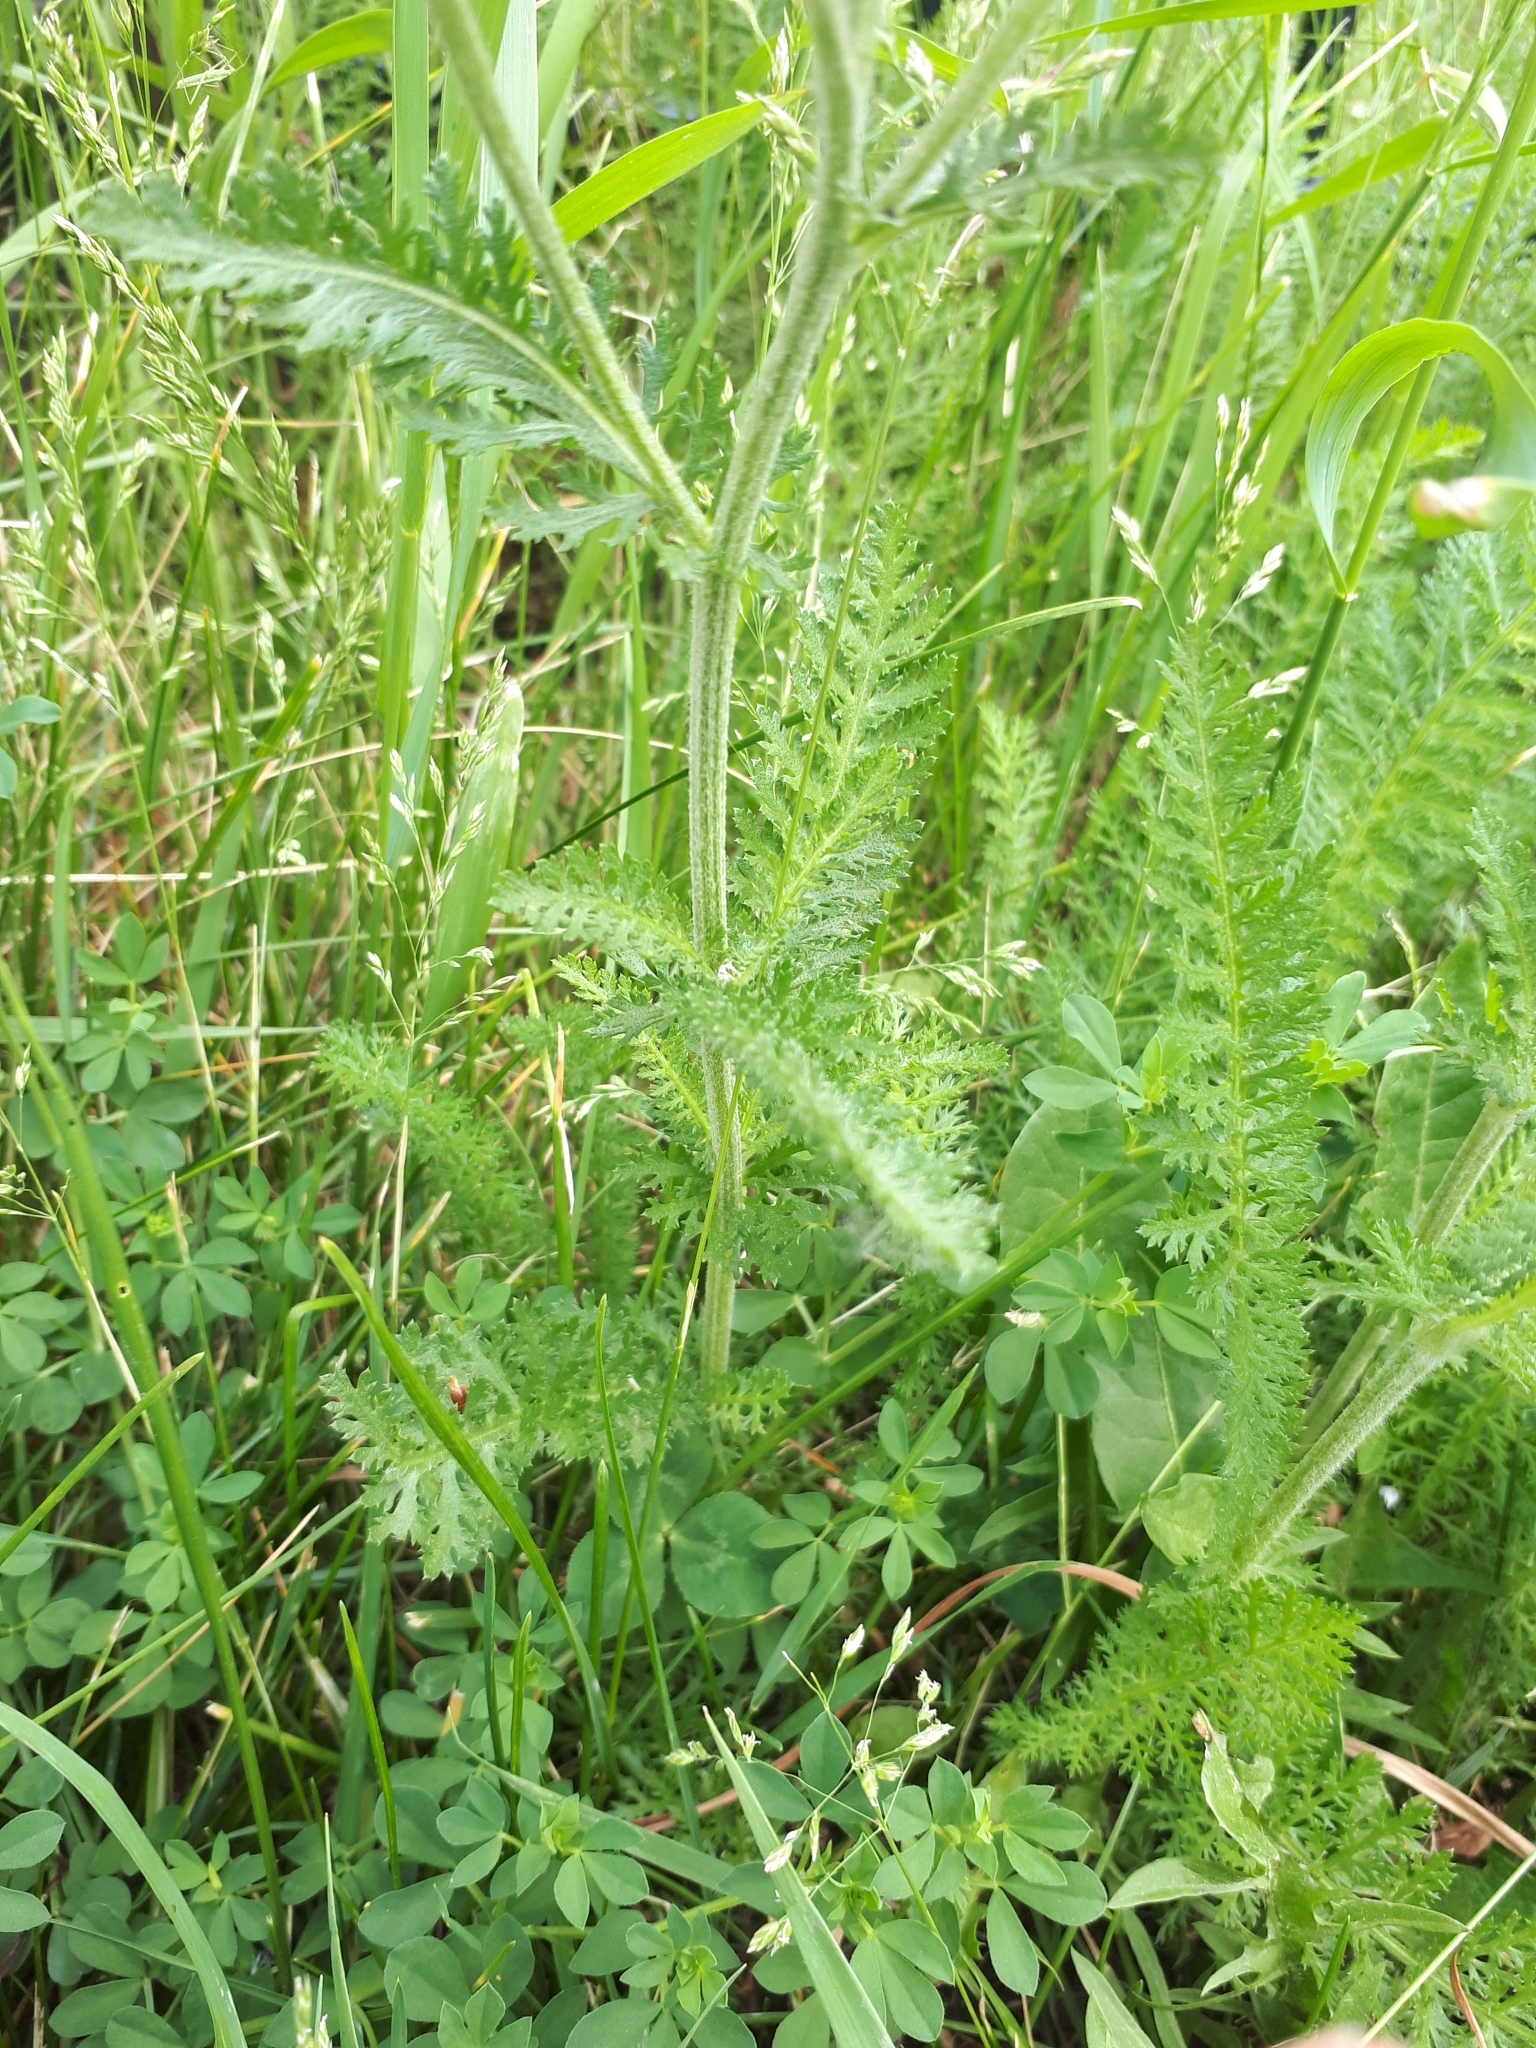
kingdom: Plantae
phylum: Tracheophyta
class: Magnoliopsida
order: Asterales
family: Asteraceae
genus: Achillea
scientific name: Achillea millefolium
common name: Yarrow
